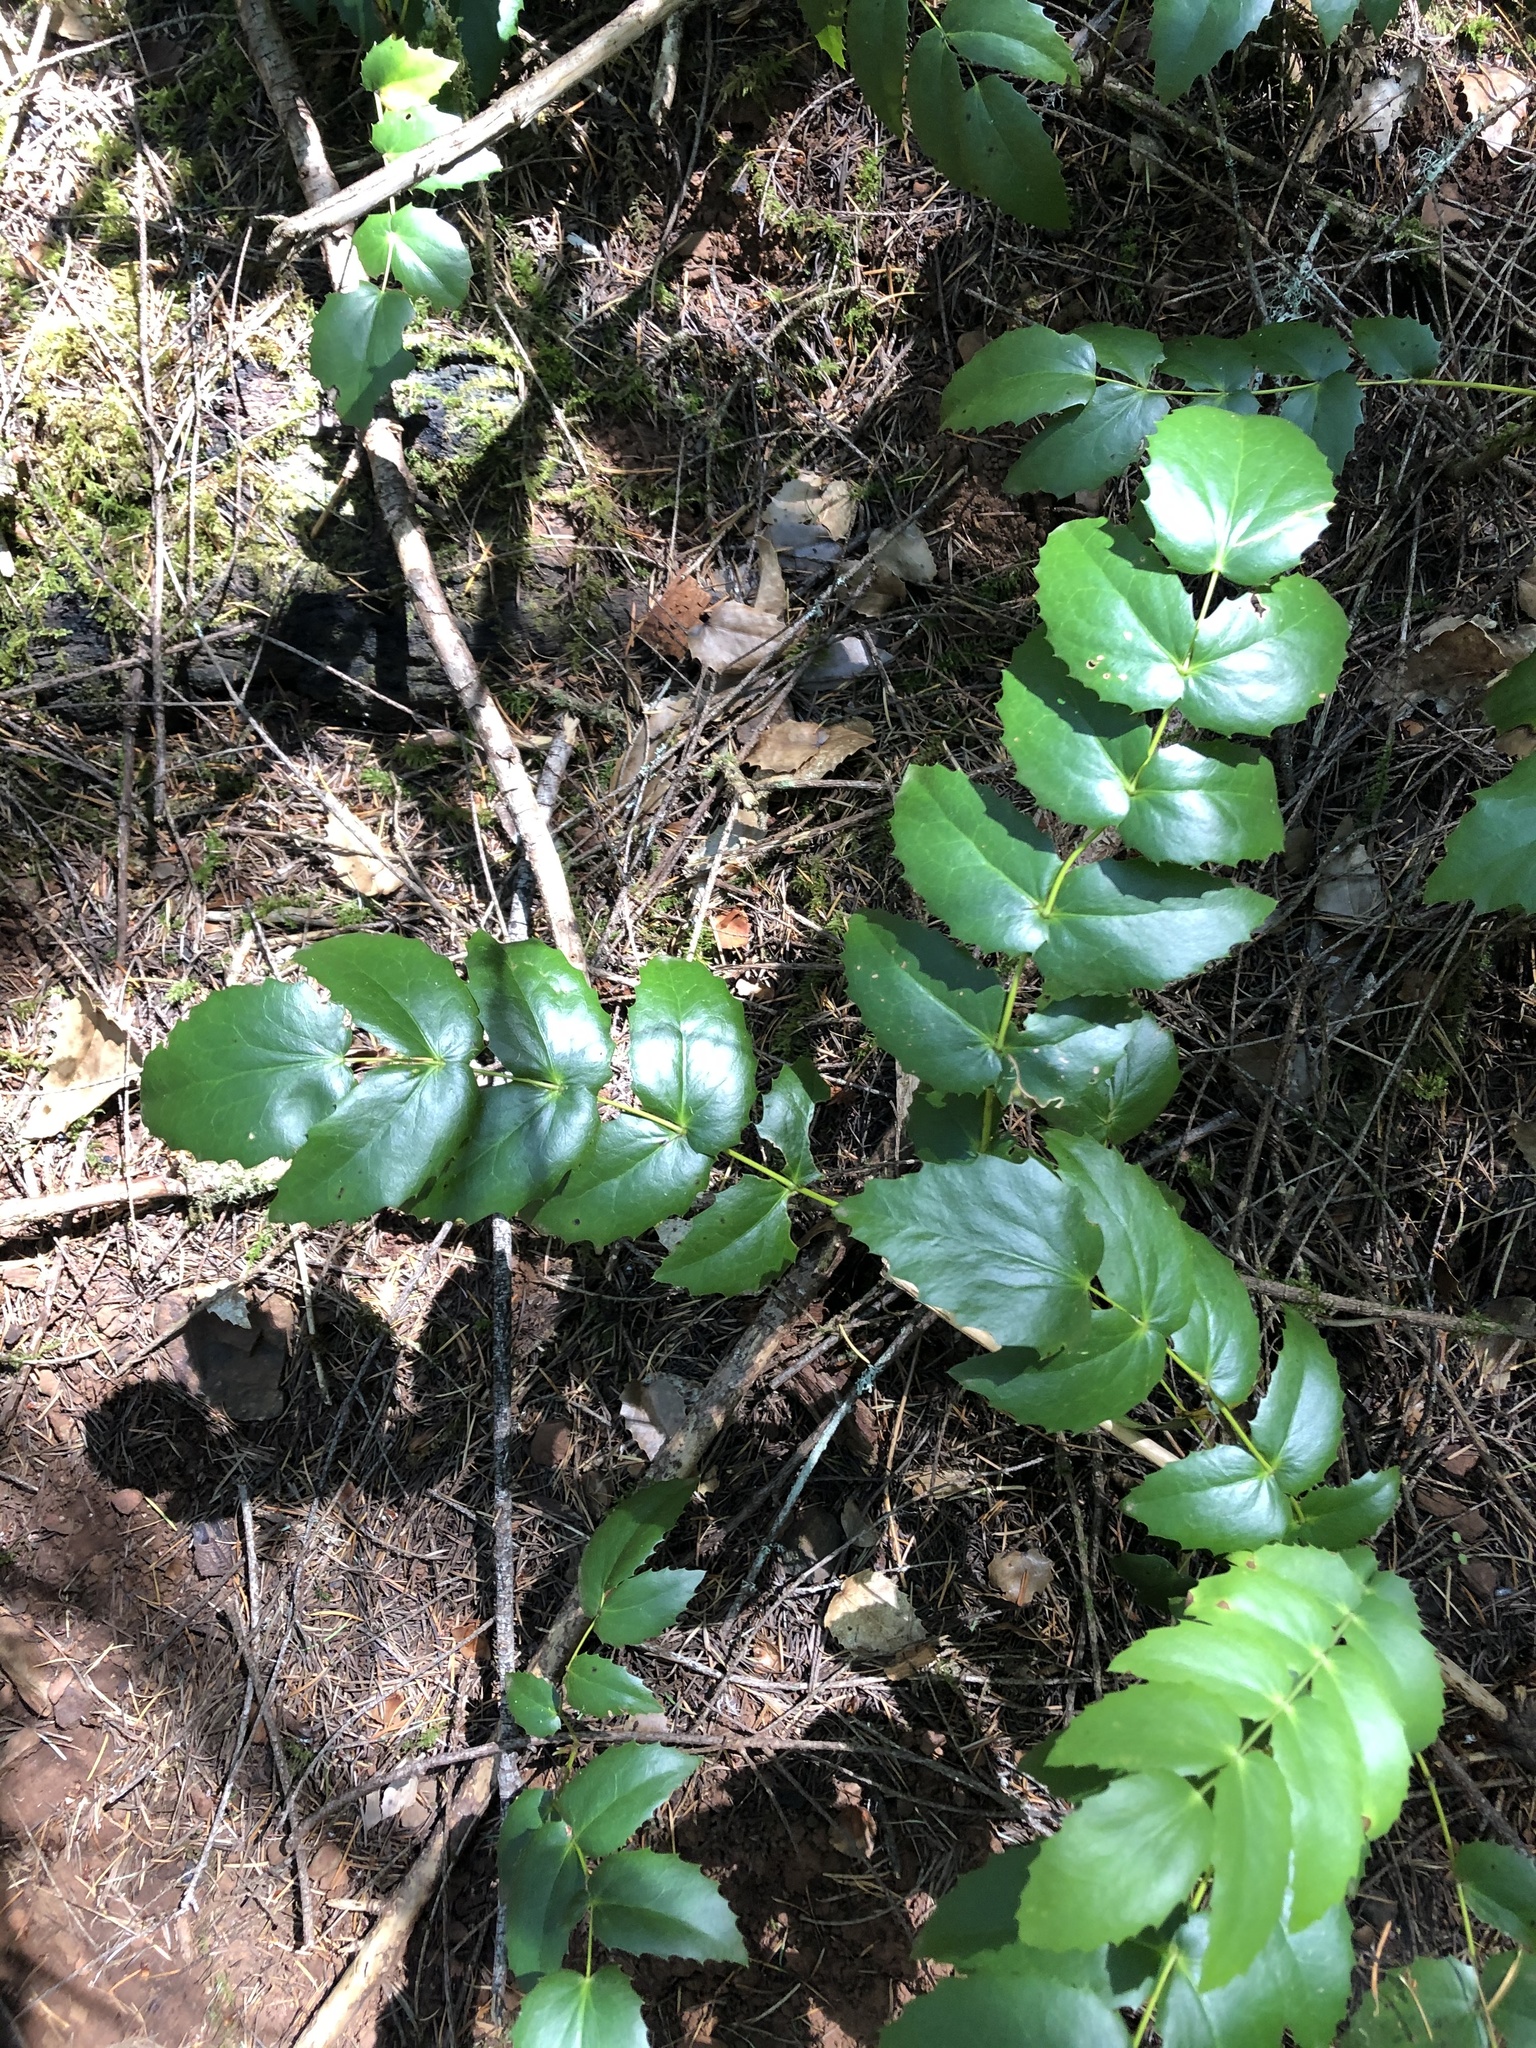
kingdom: Plantae
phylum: Tracheophyta
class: Magnoliopsida
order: Ranunculales
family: Berberidaceae
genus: Mahonia
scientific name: Mahonia nervosa
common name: Cascade oregon-grape
